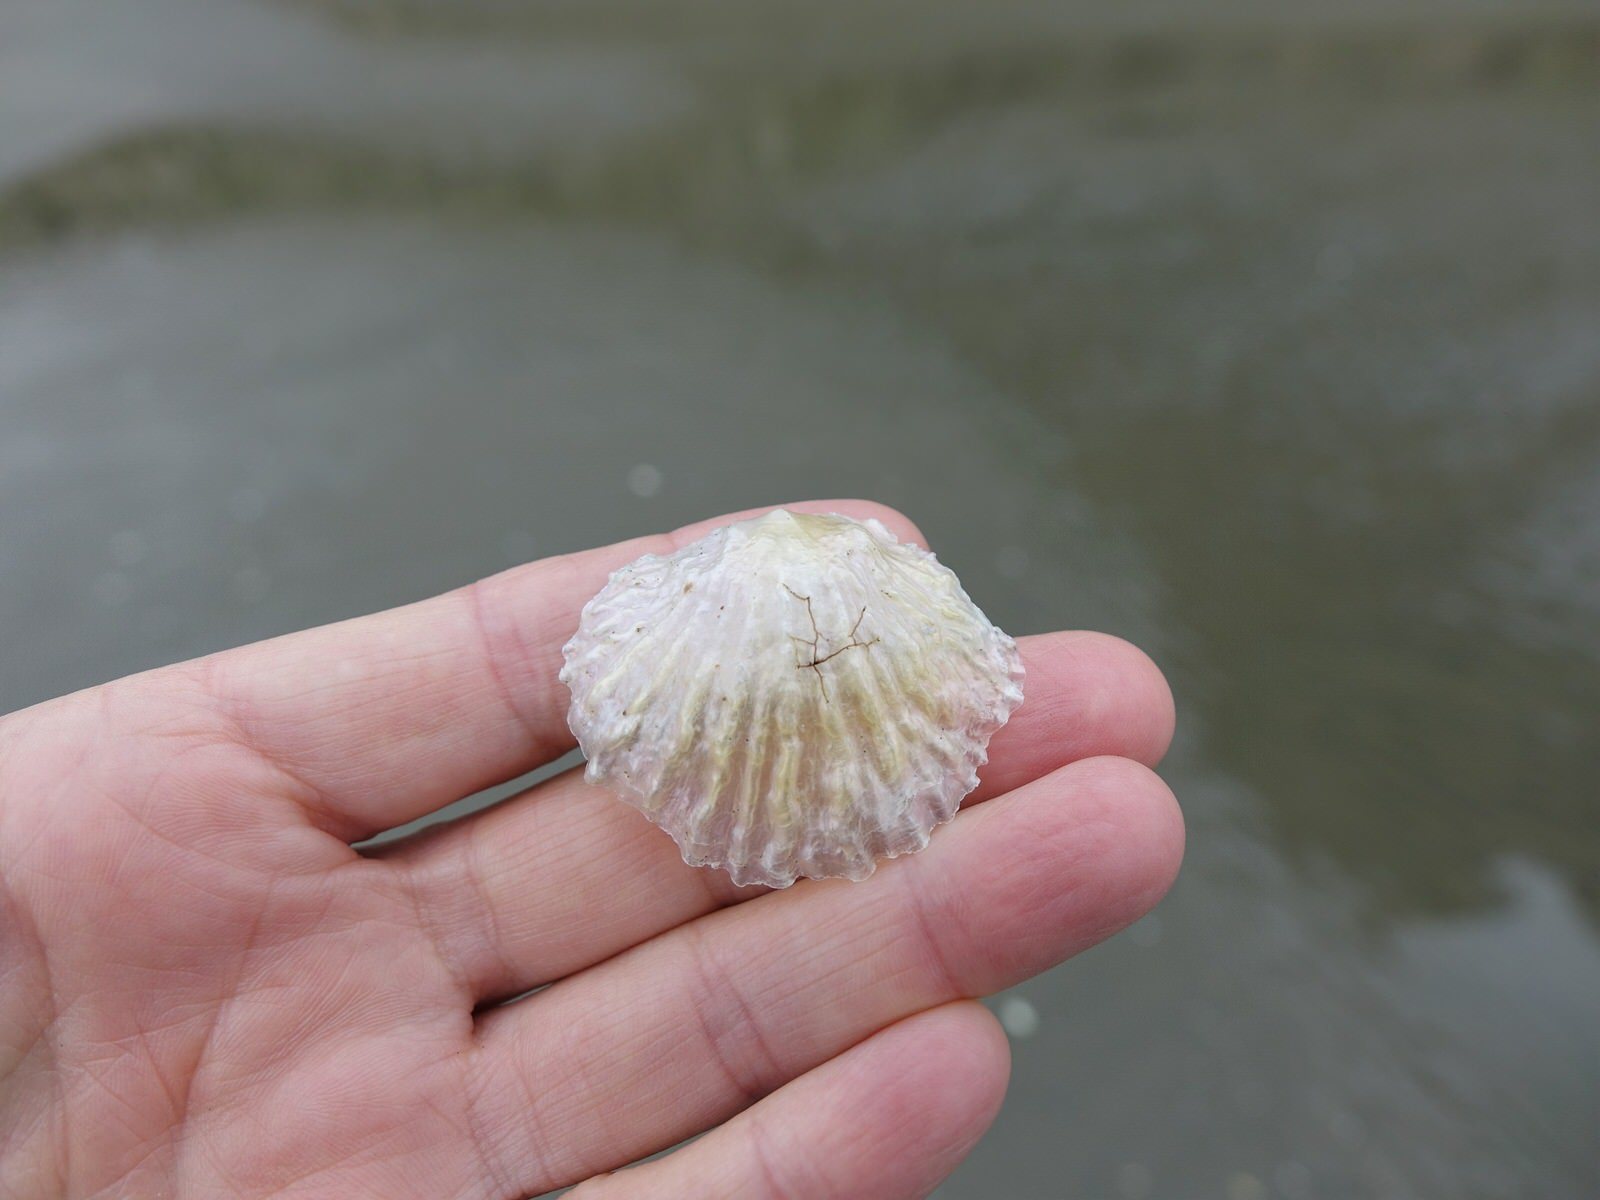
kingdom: Animalia
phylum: Mollusca
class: Bivalvia
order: Pectinida
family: Anomiidae
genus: Anomia
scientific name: Anomia trigonopsis
